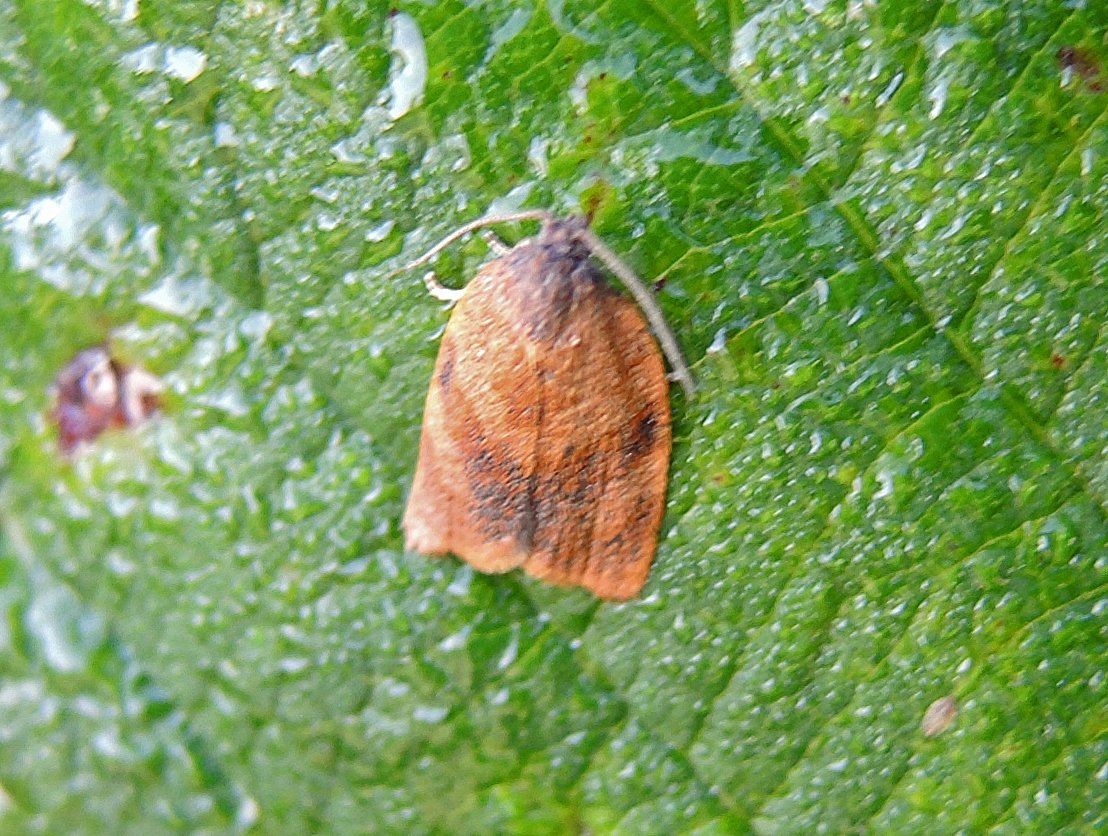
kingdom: Animalia
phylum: Arthropoda
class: Insecta
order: Lepidoptera
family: Tortricidae
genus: Cacoecimorpha
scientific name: Cacoecimorpha pronubana
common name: Carnation tortrix
